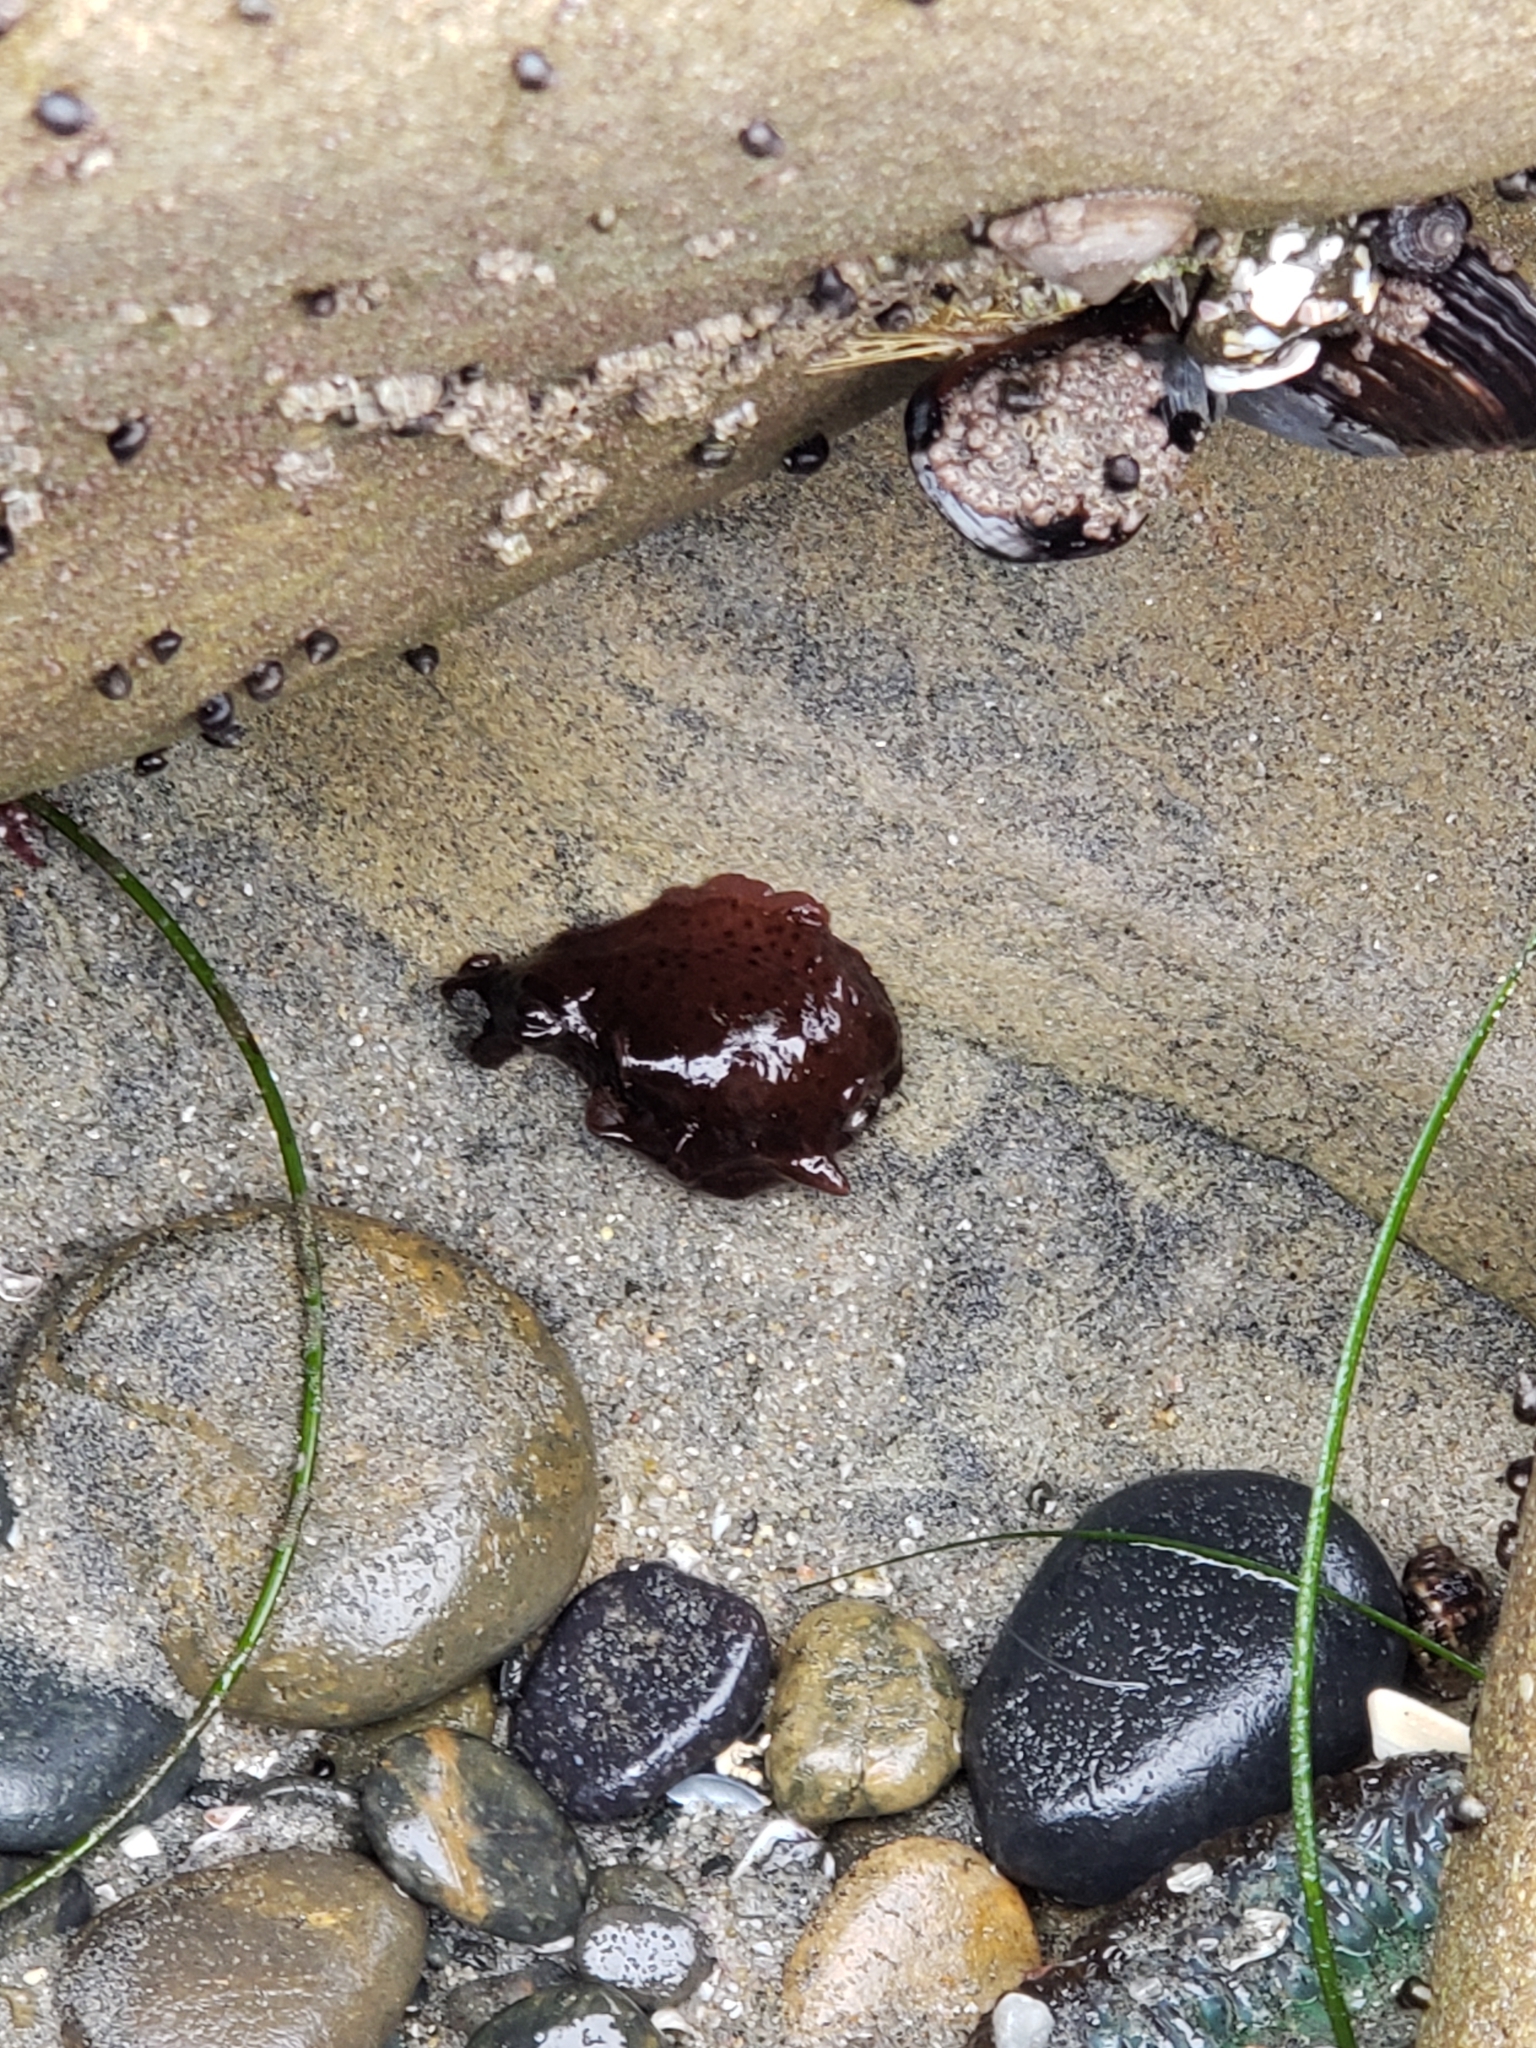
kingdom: Animalia
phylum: Mollusca
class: Gastropoda
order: Aplysiida
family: Aplysiidae
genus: Aplysia
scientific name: Aplysia californica
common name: California seahare
